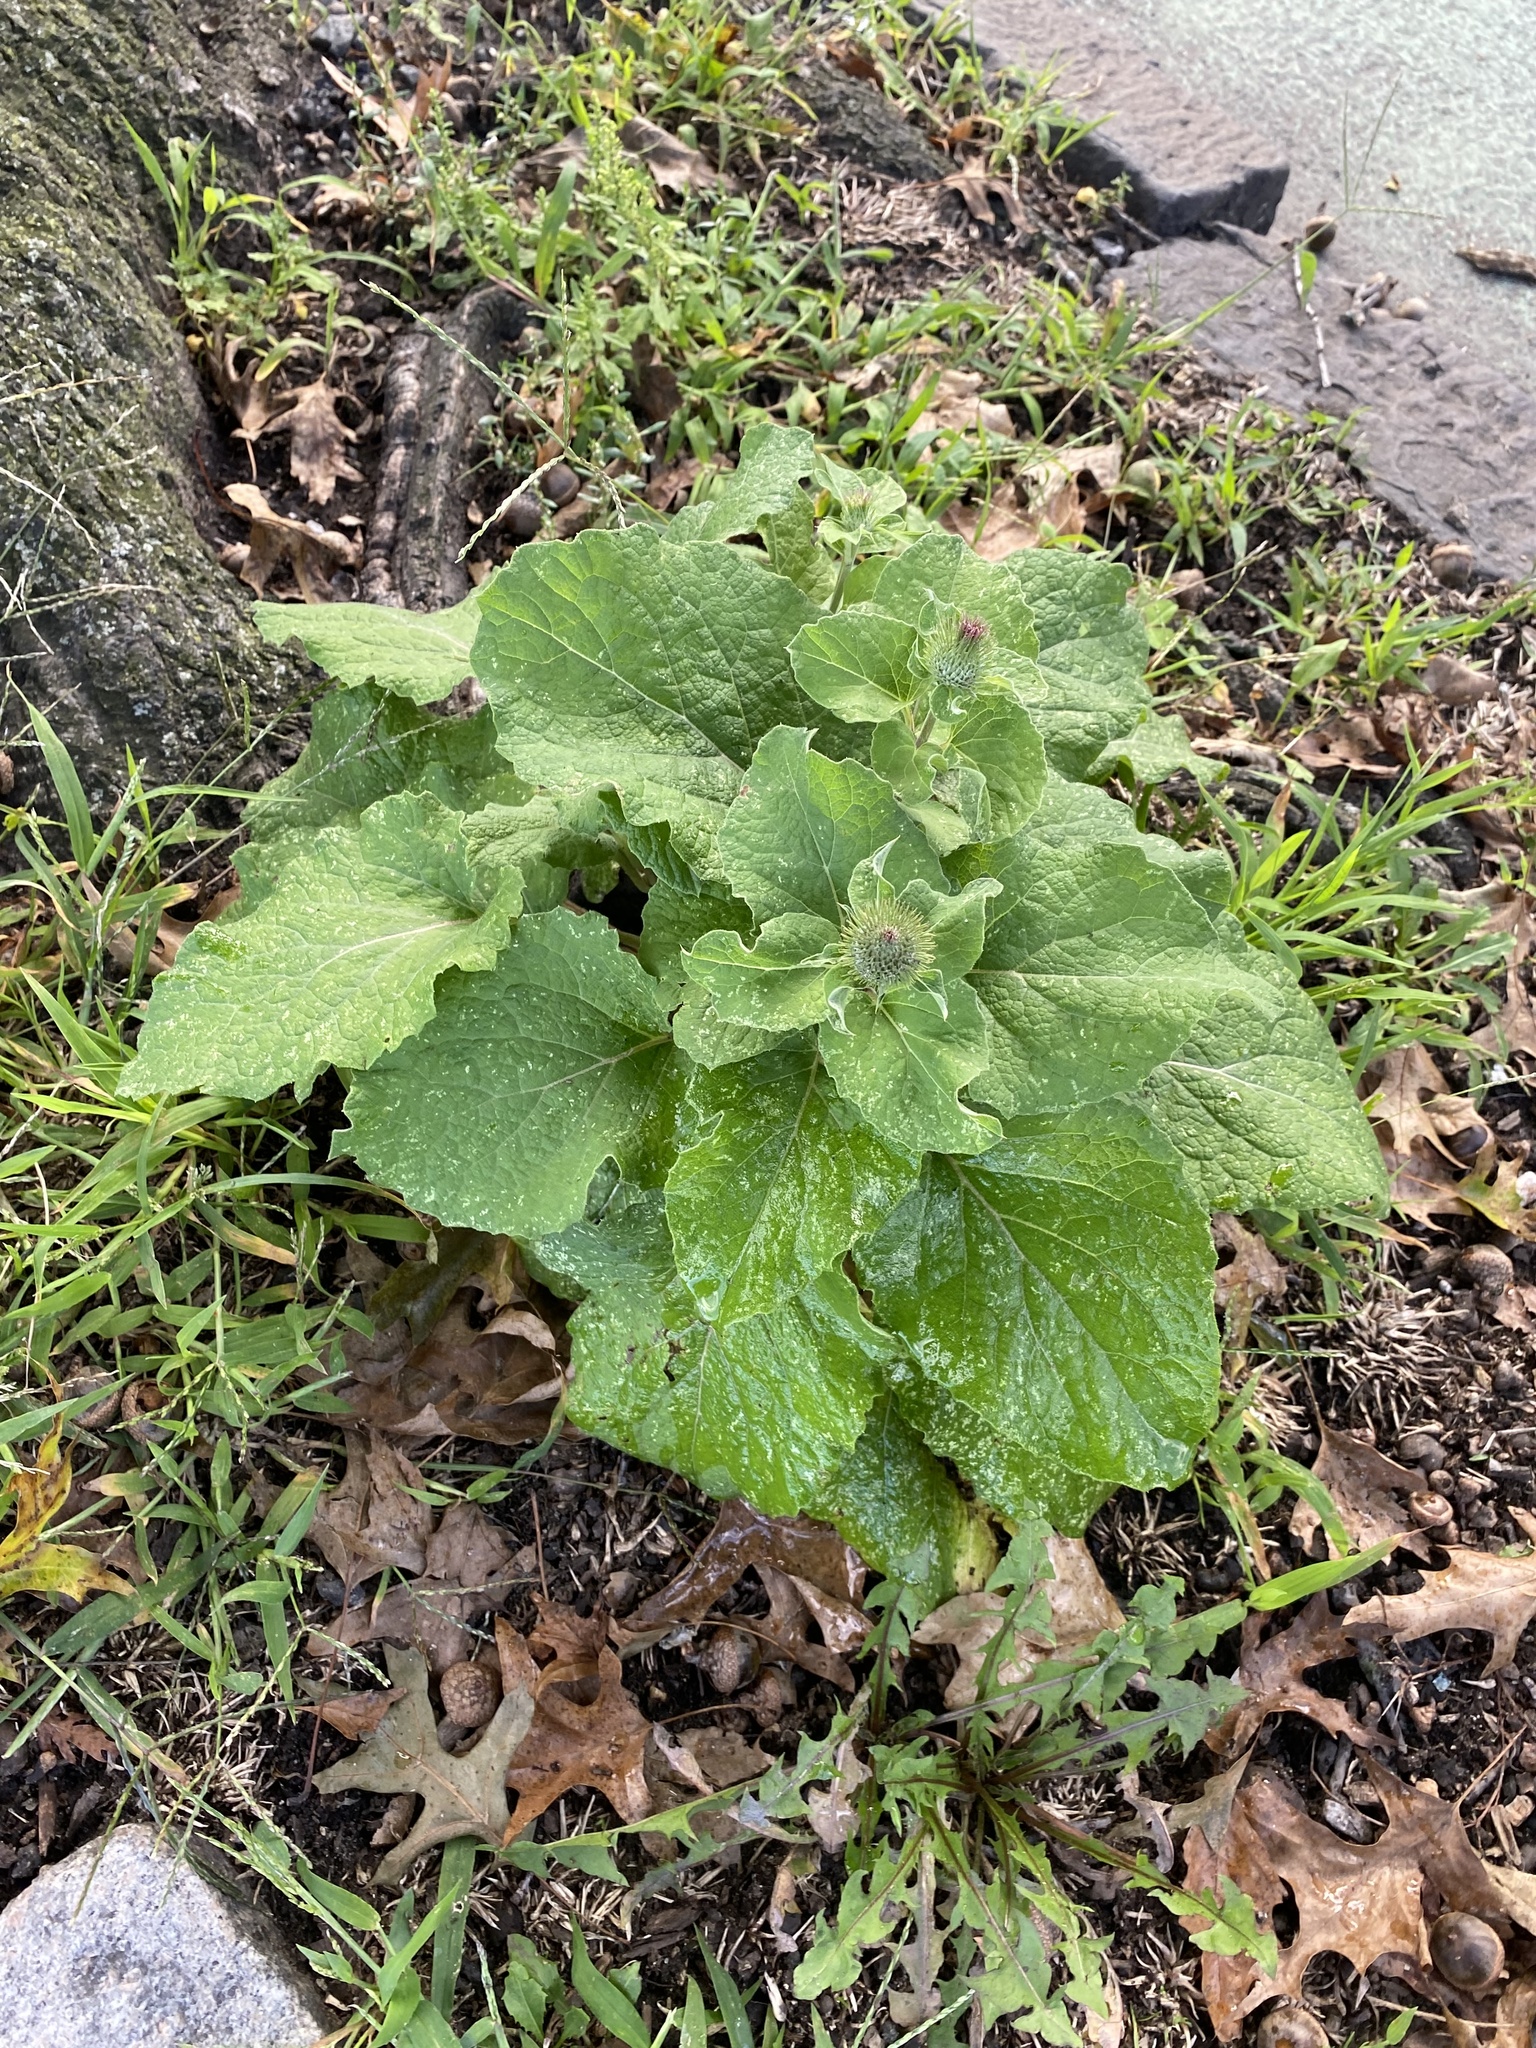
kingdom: Plantae
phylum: Tracheophyta
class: Magnoliopsida
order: Asterales
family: Asteraceae
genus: Arctium
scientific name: Arctium
